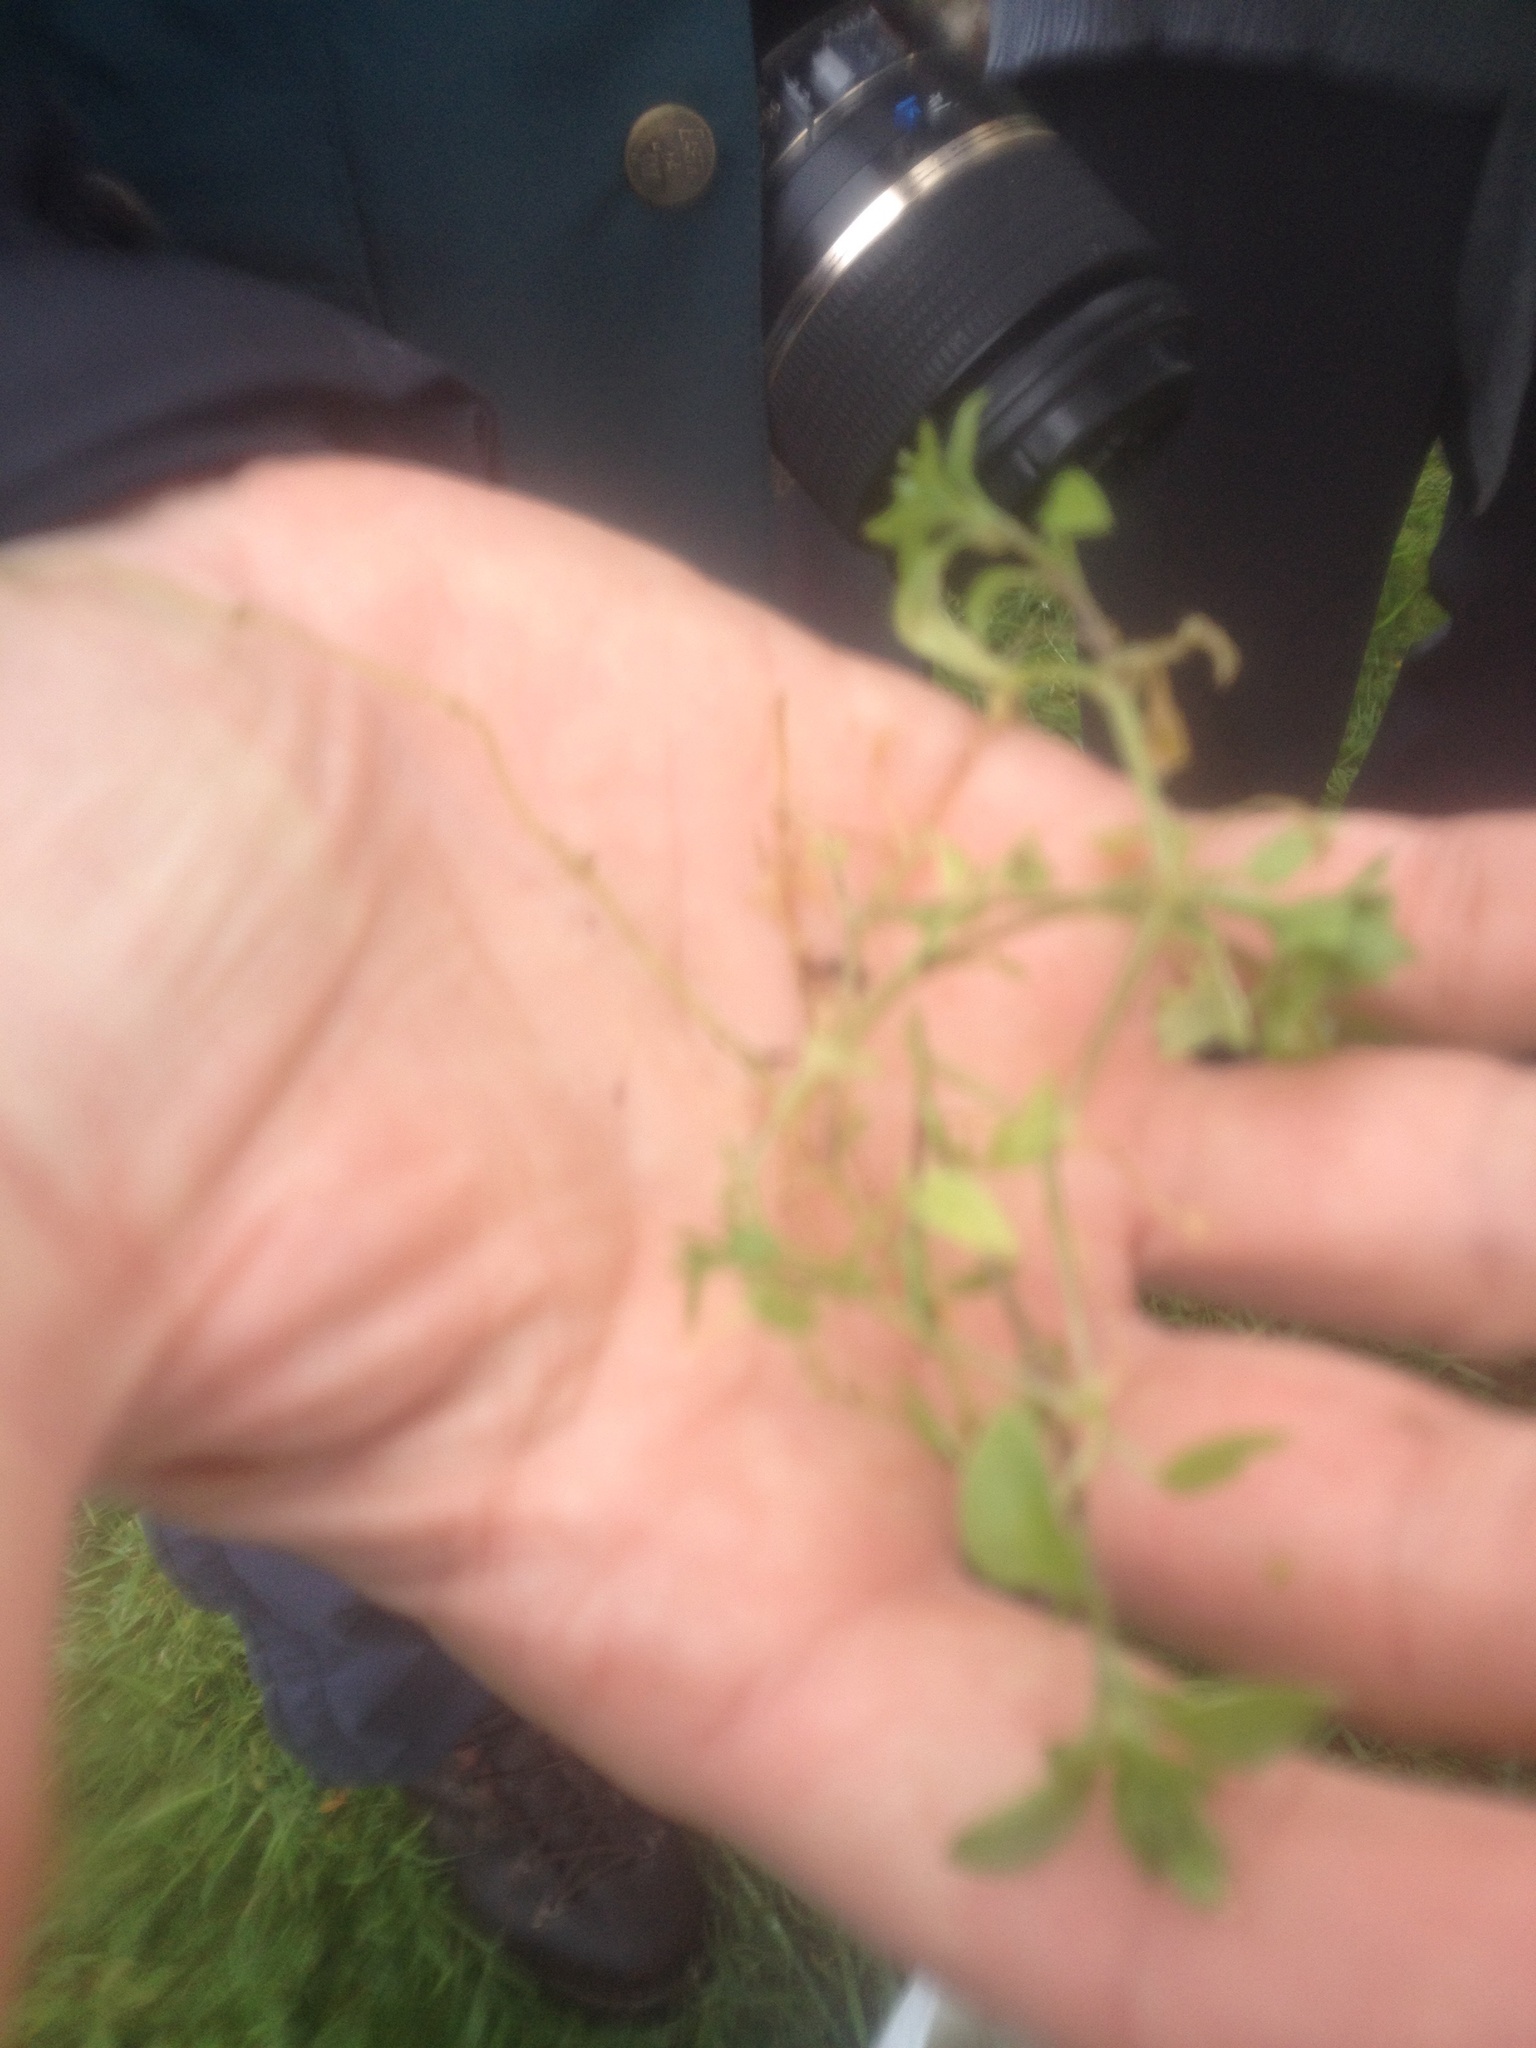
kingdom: Plantae
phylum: Tracheophyta
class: Magnoliopsida
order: Caryophyllales
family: Caryophyllaceae
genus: Stellaria
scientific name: Stellaria media
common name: Common chickweed
